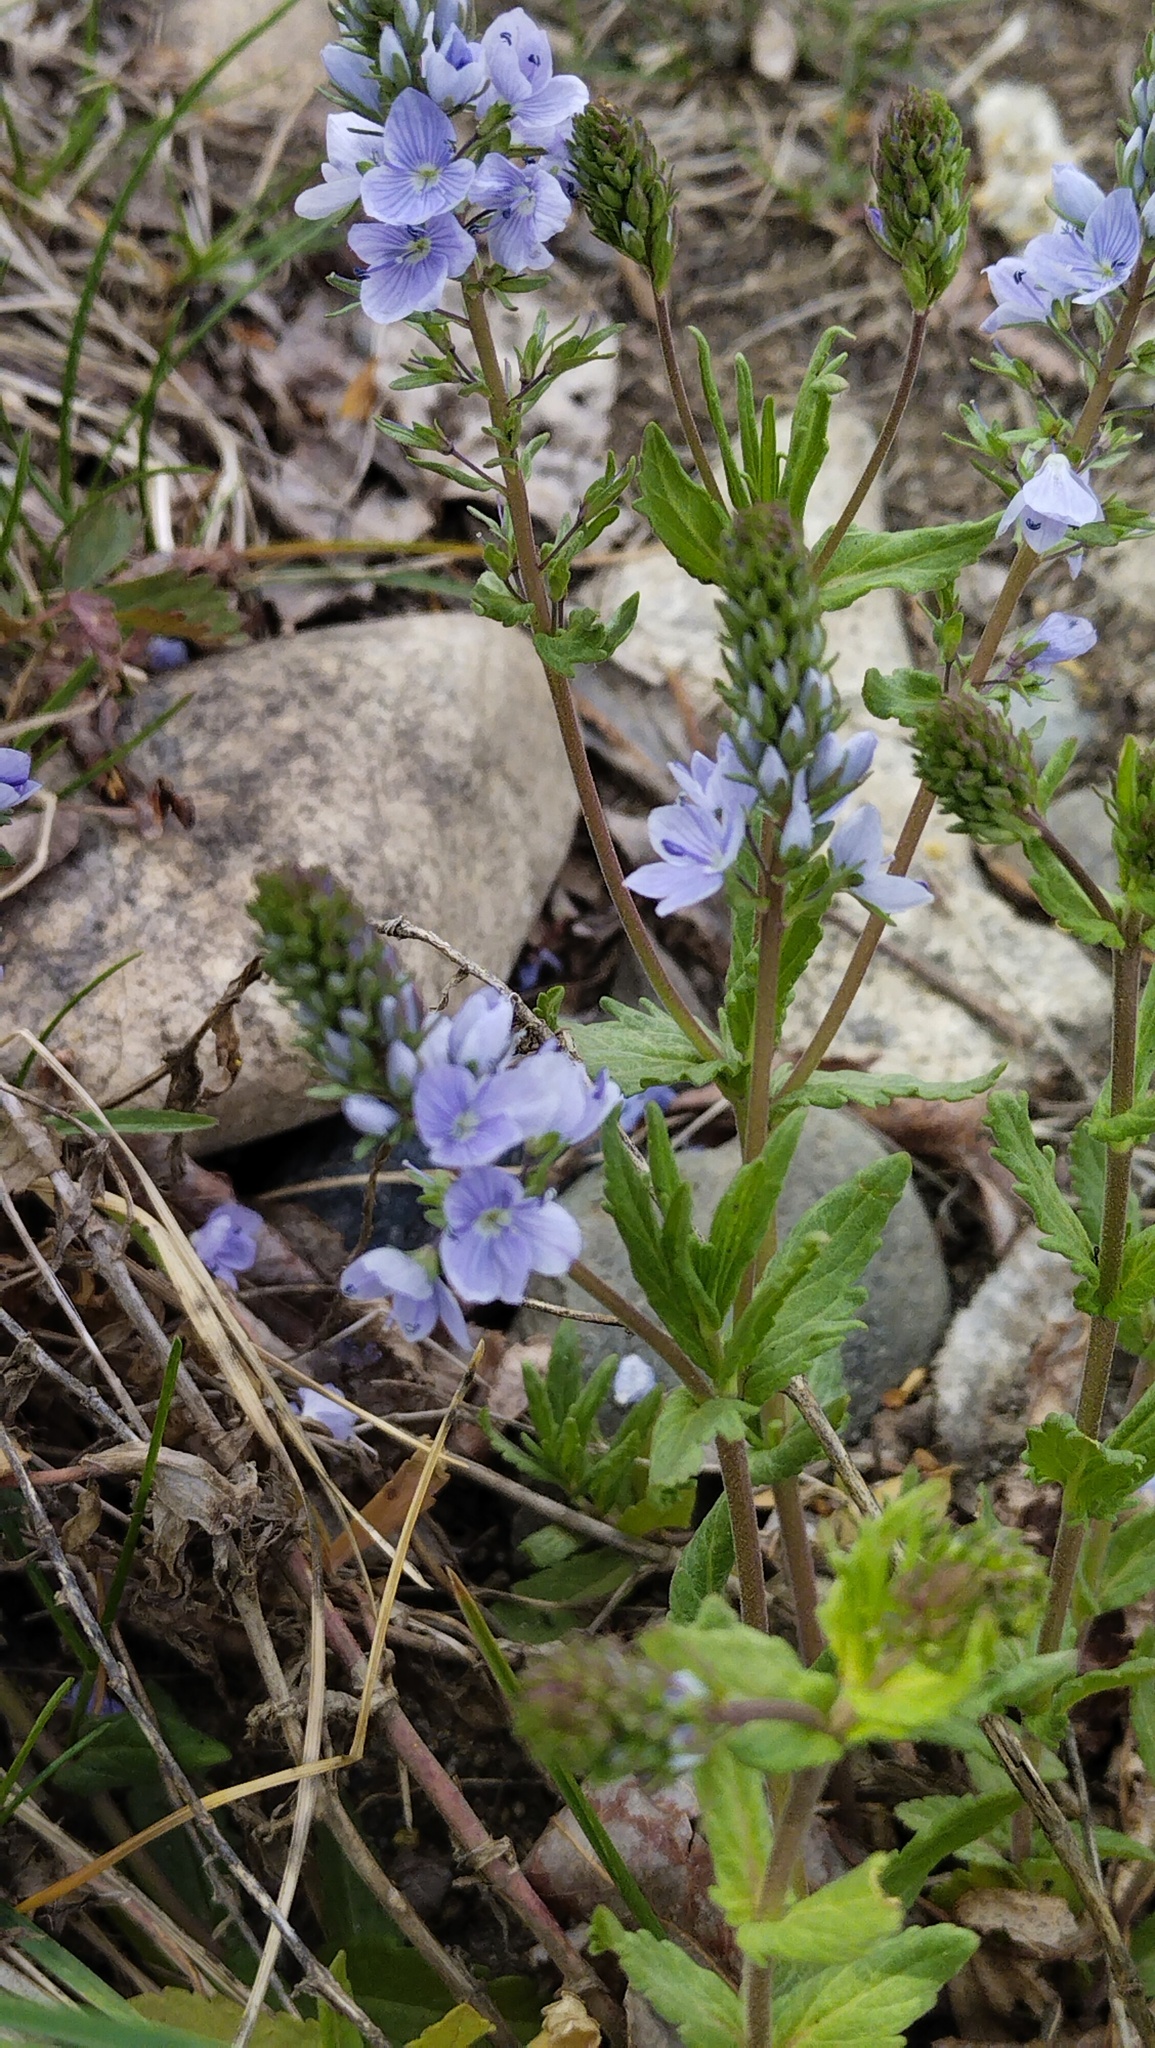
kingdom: Plantae
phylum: Tracheophyta
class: Magnoliopsida
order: Lamiales
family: Plantaginaceae
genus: Veronica
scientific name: Veronica prostrata
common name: Prostrate speedwell
